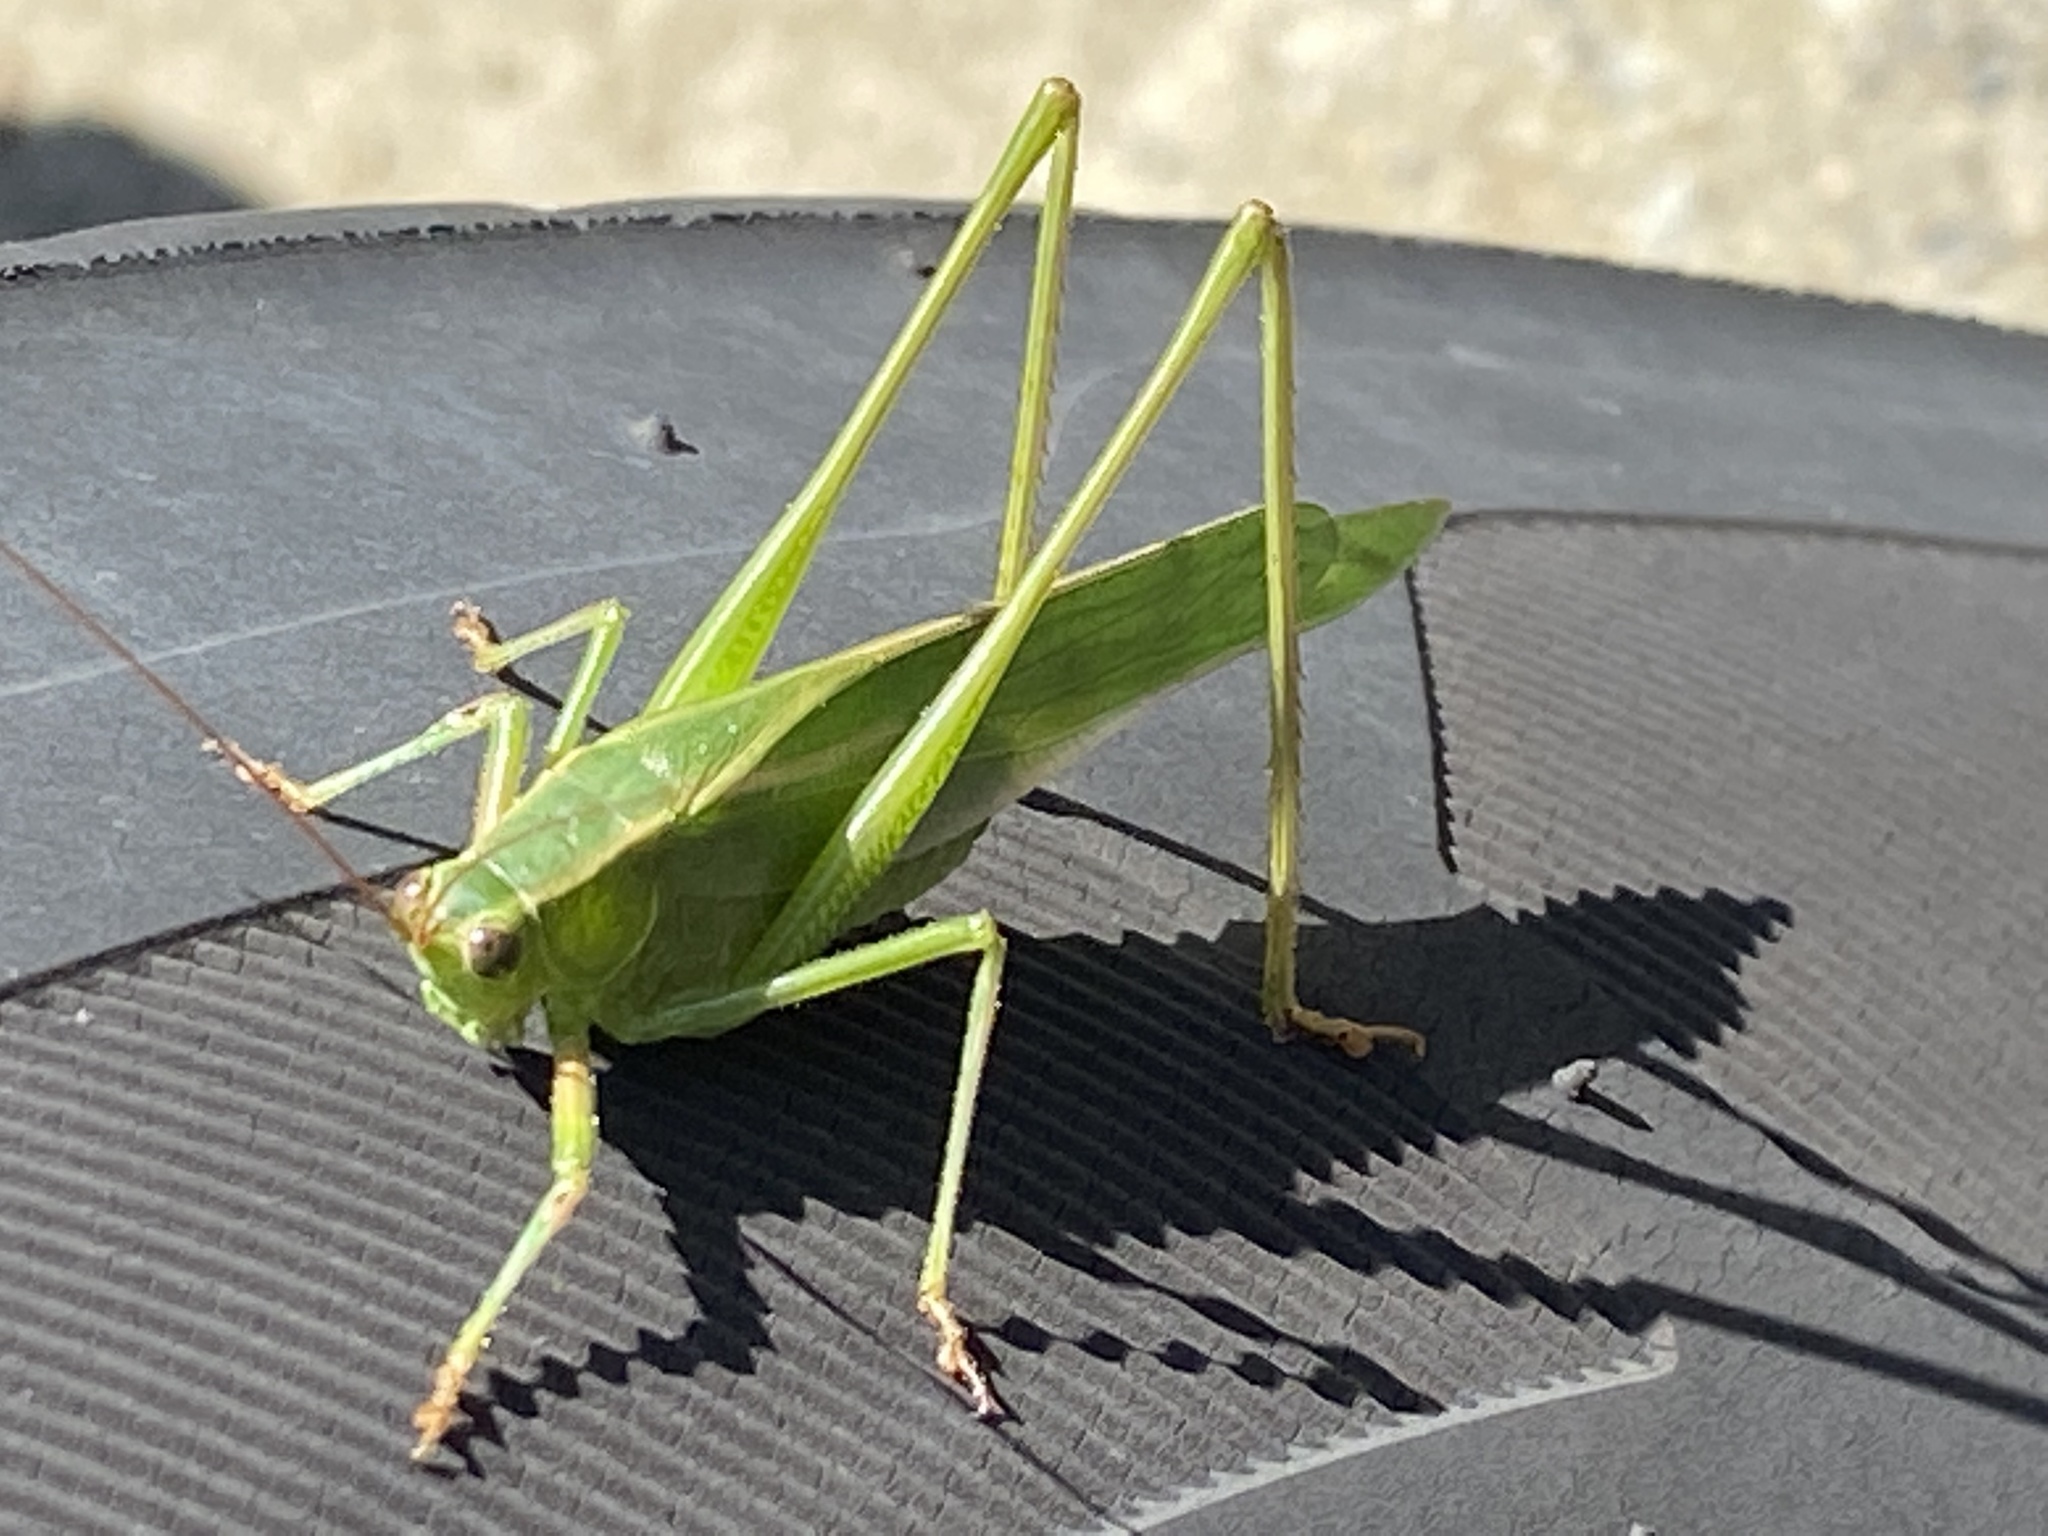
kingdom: Animalia
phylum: Arthropoda
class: Insecta
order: Orthoptera
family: Tettigoniidae
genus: Scudderia
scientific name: Scudderia
